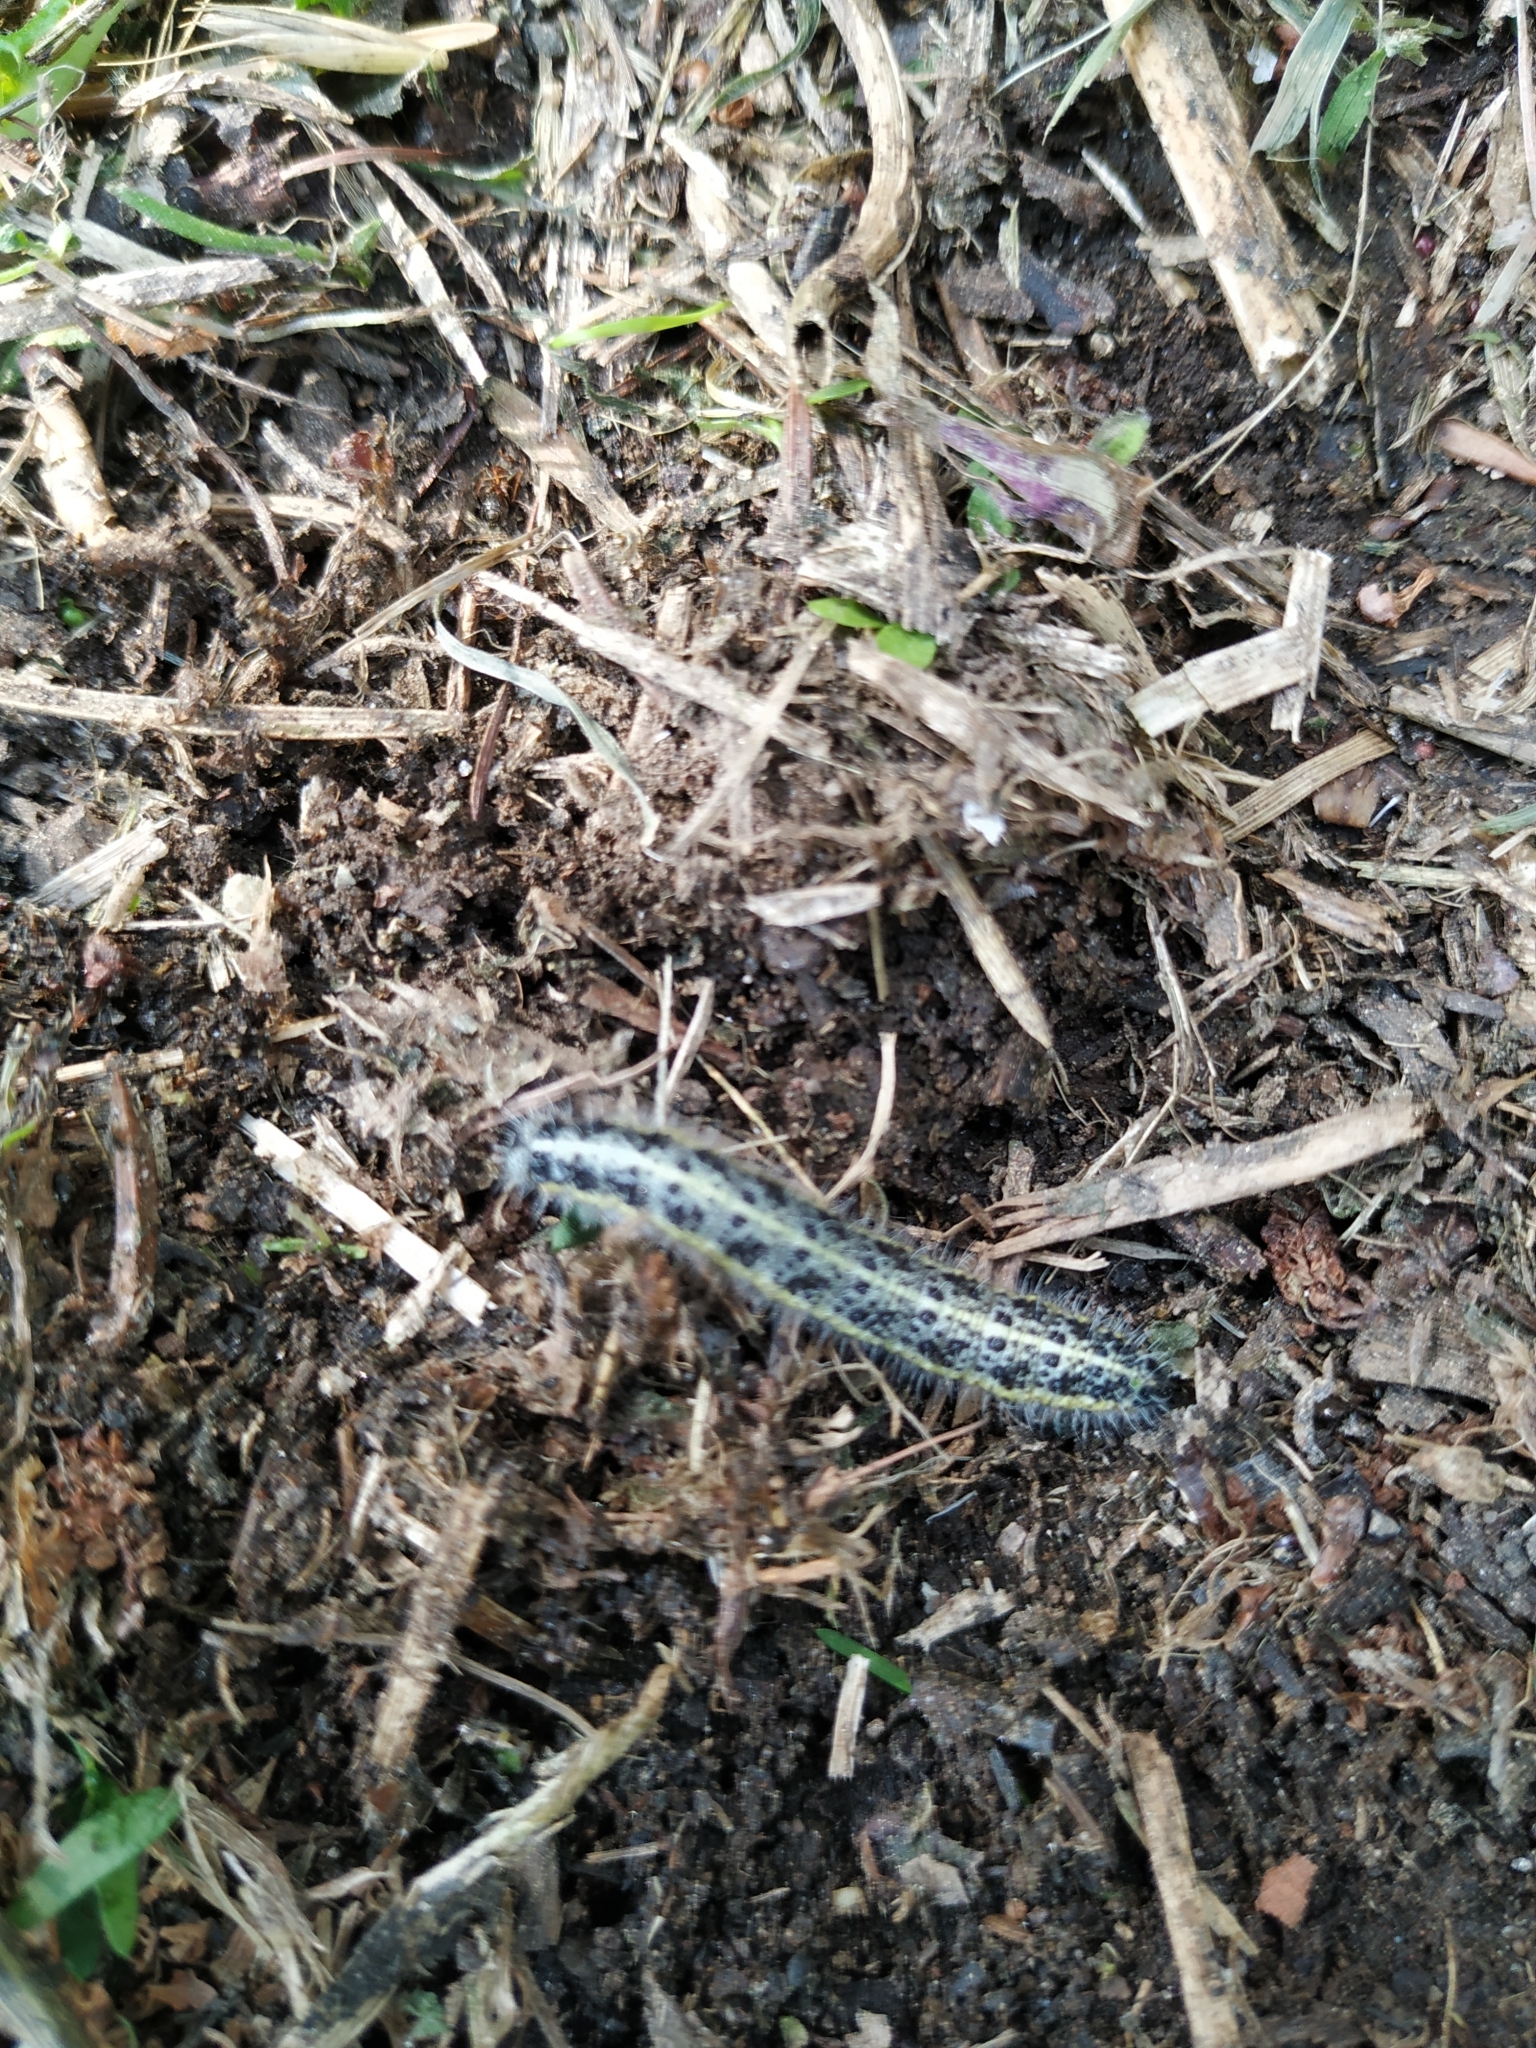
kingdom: Animalia
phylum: Arthropoda
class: Insecta
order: Lepidoptera
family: Pieridae
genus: Pieris
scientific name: Pieris brassicae
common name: Large white
